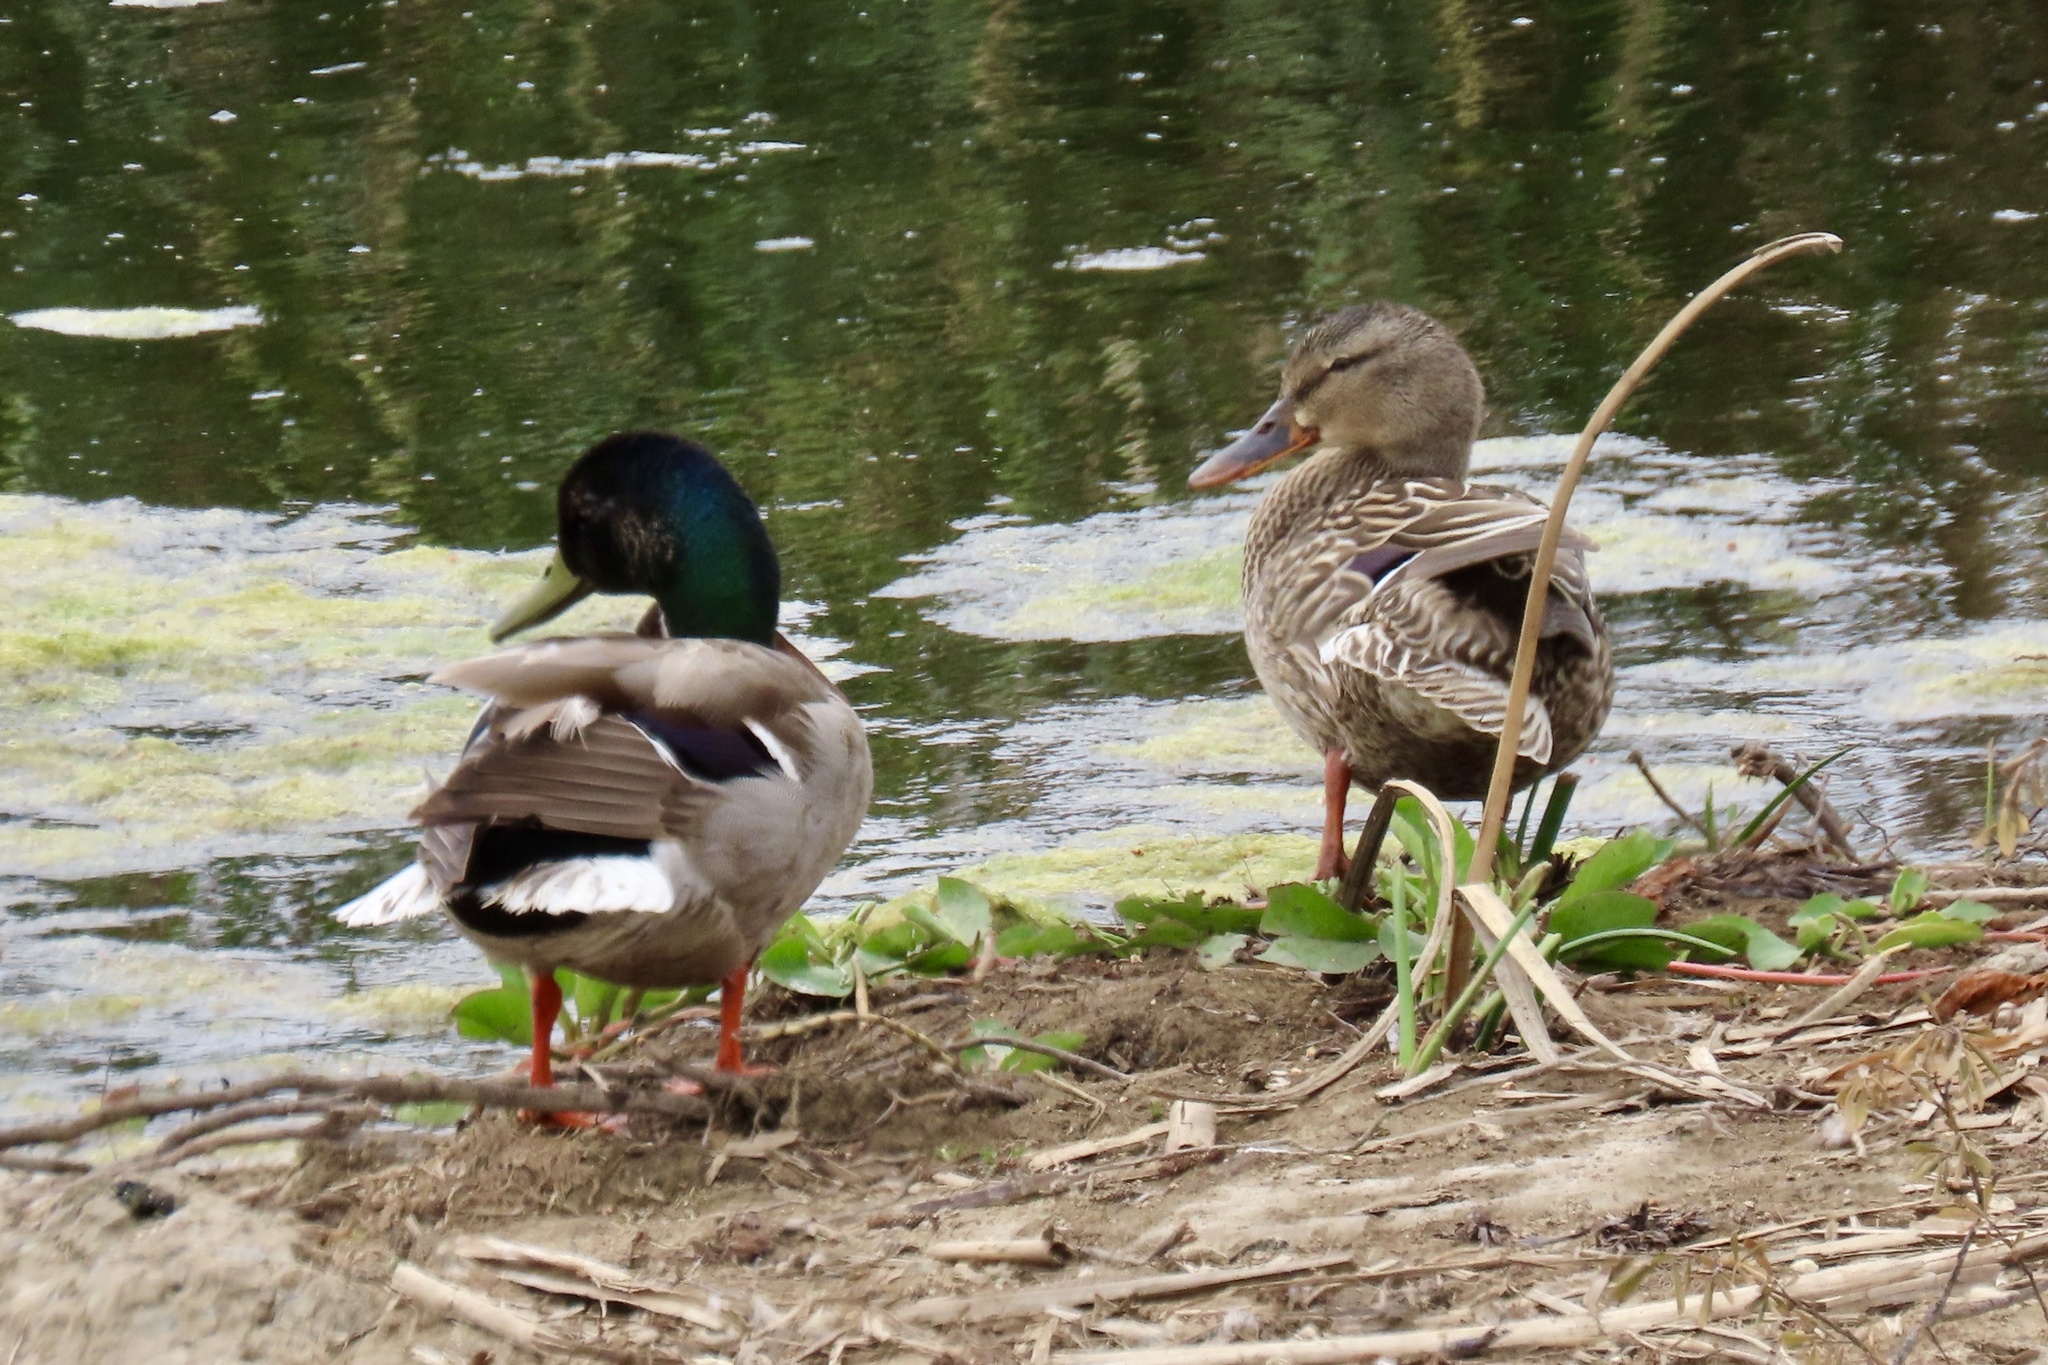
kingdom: Animalia
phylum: Chordata
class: Aves
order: Anseriformes
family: Anatidae
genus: Anas
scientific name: Anas platyrhynchos
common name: Mallard
